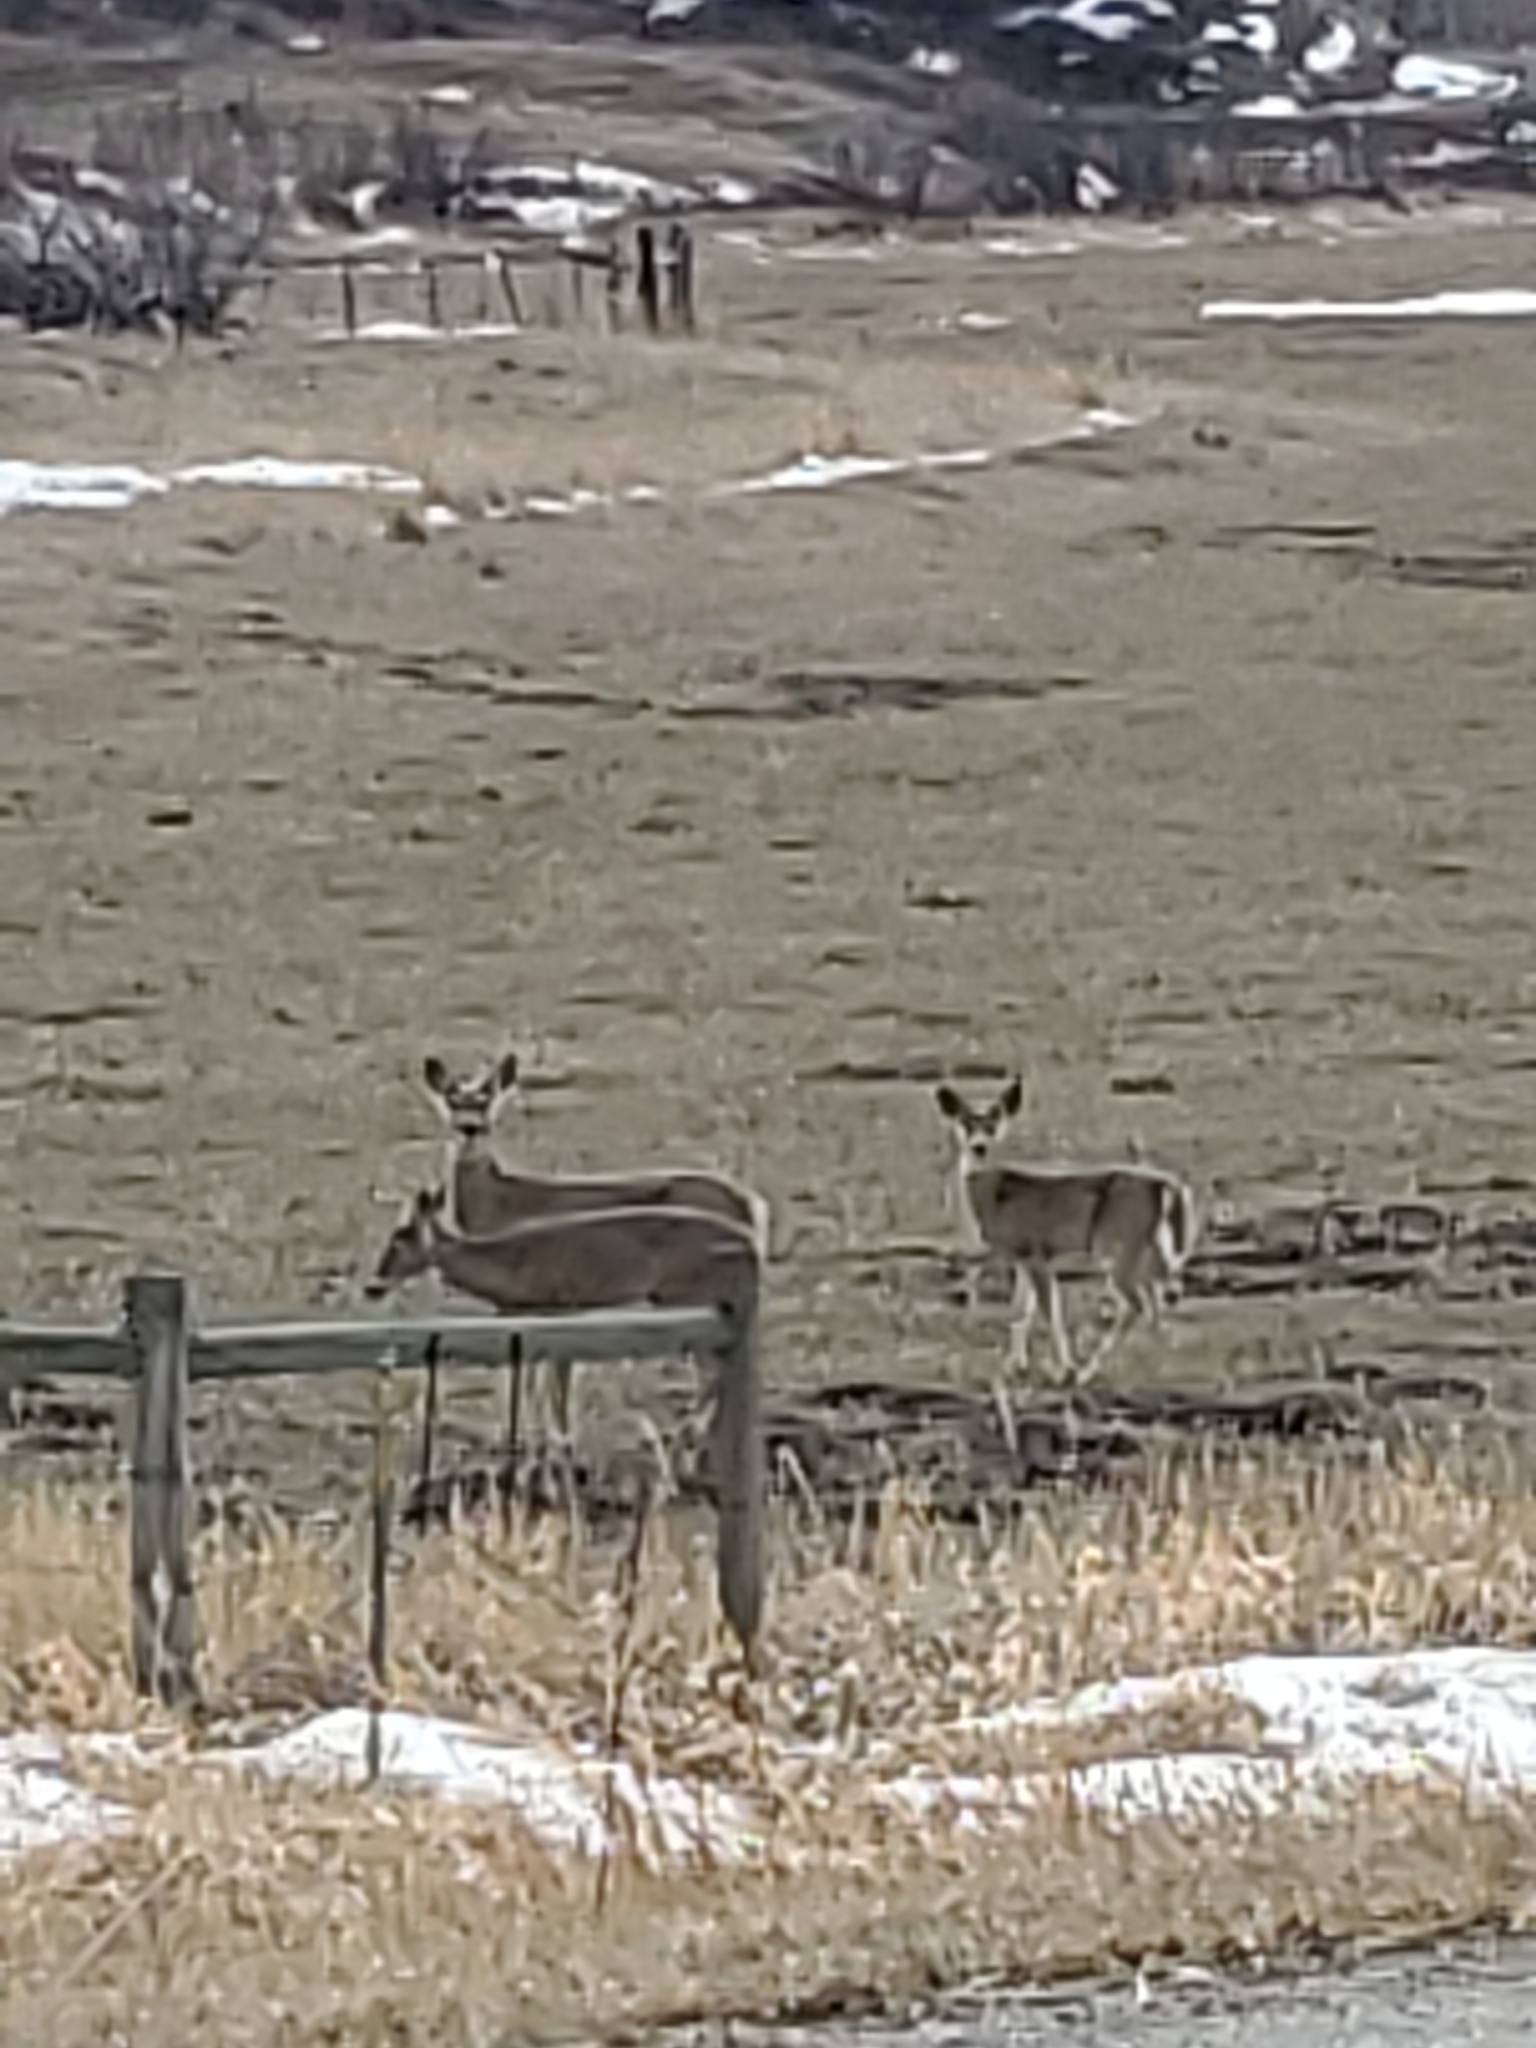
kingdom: Animalia
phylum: Chordata
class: Mammalia
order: Artiodactyla
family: Cervidae
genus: Odocoileus
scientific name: Odocoileus virginianus
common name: White-tailed deer
